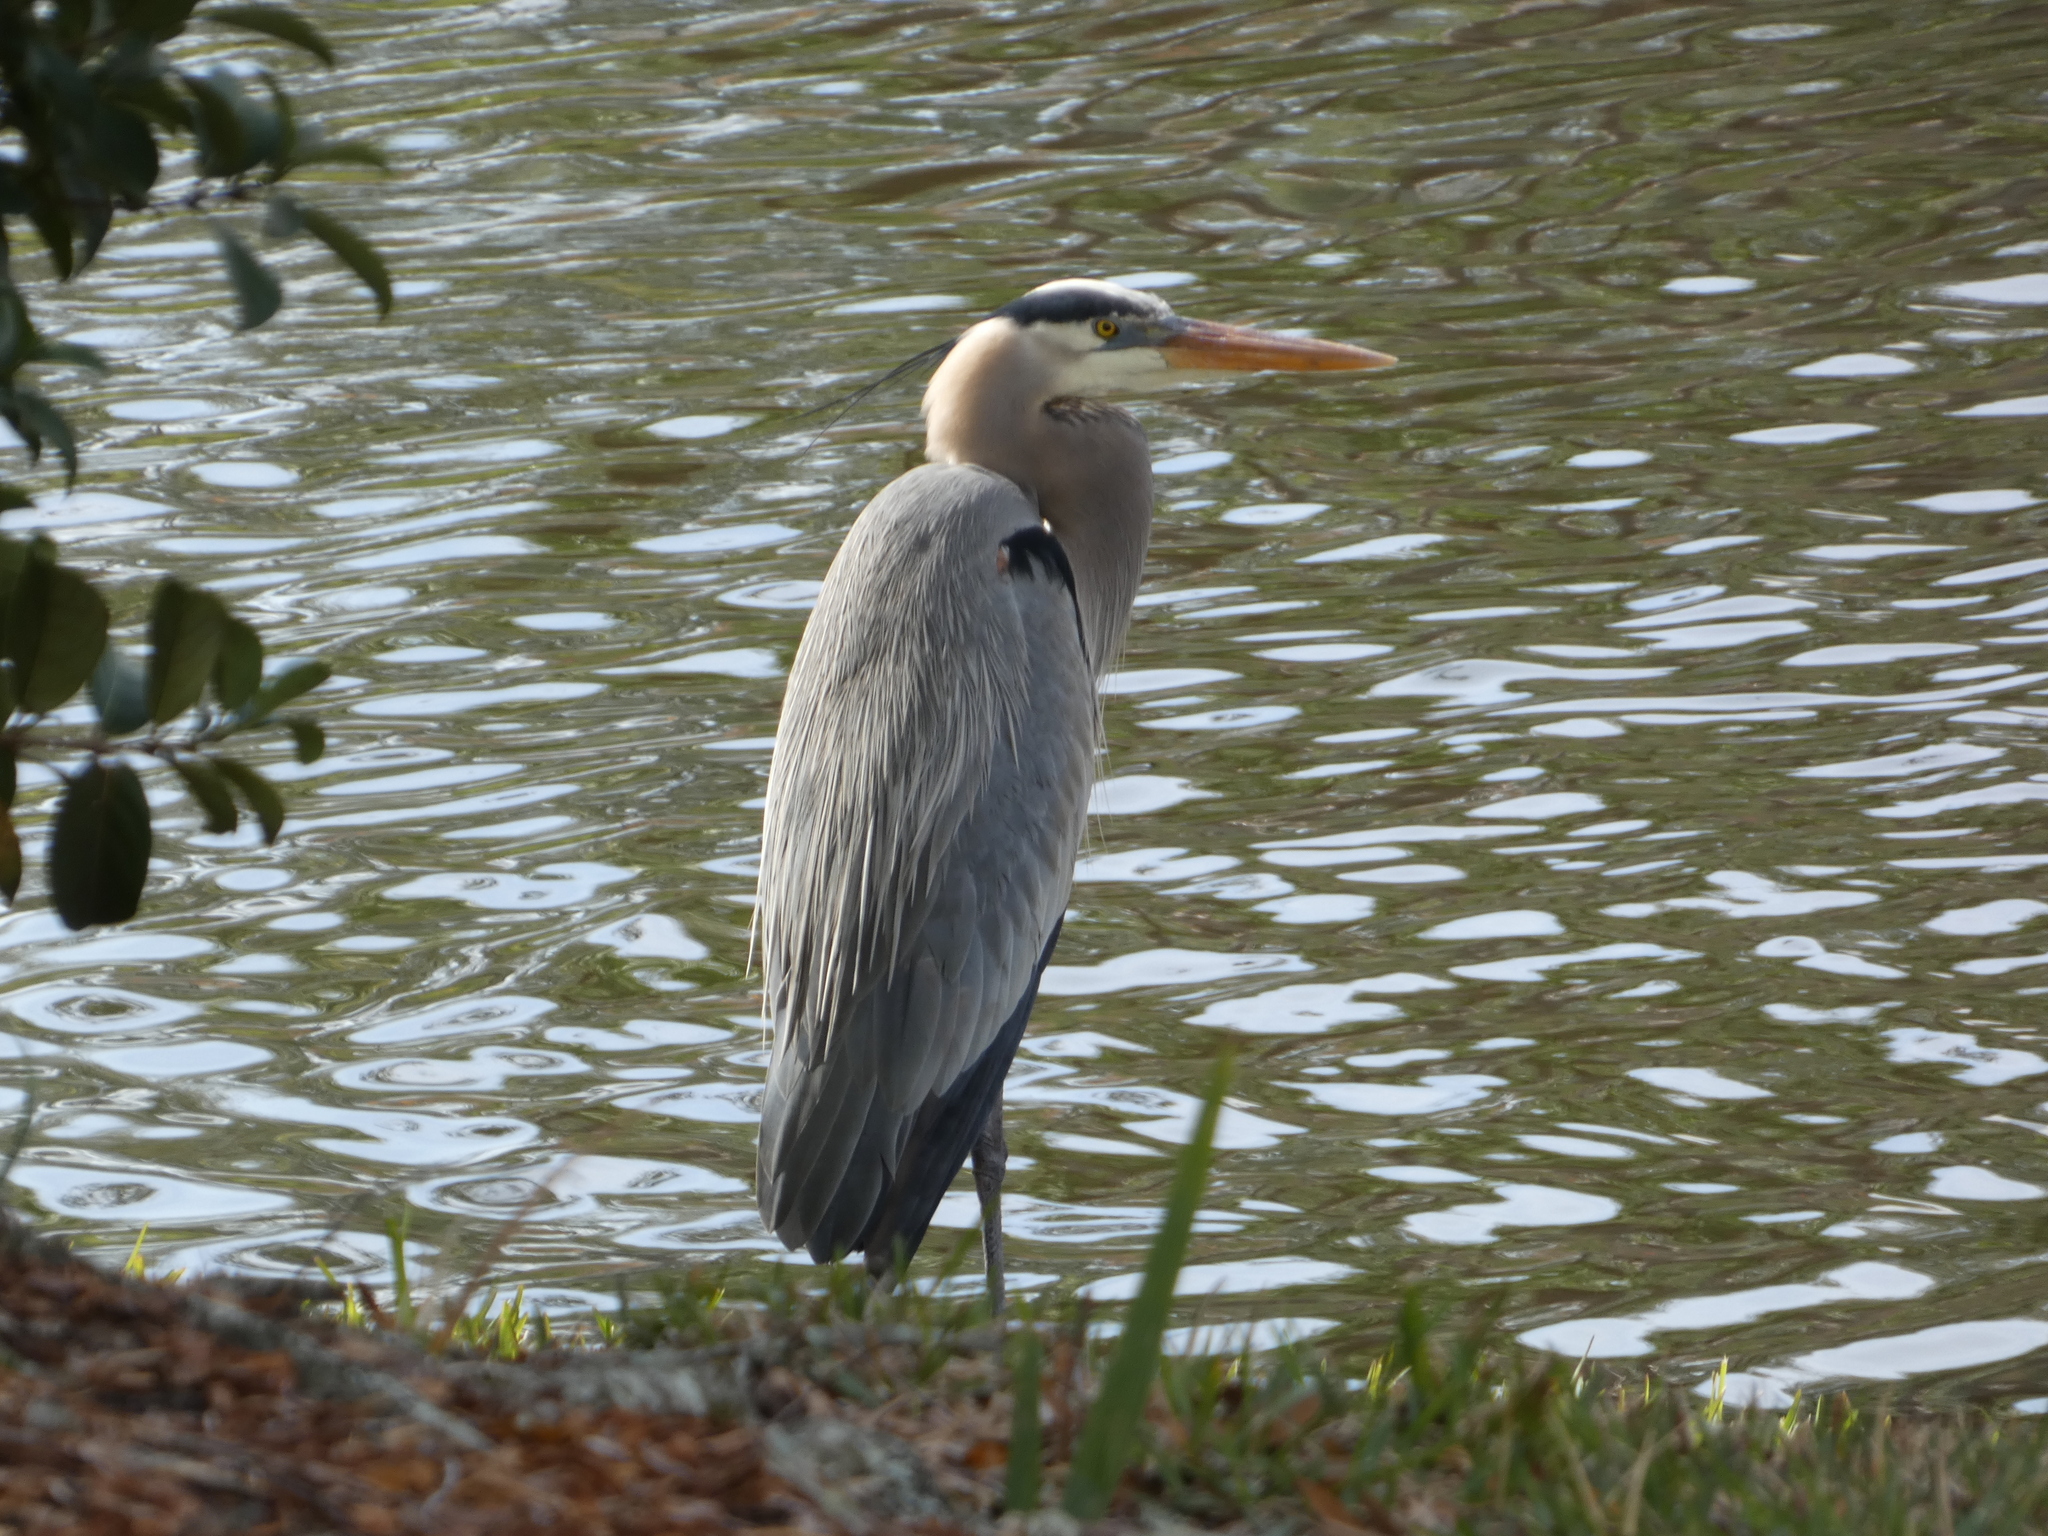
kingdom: Animalia
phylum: Chordata
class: Aves
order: Pelecaniformes
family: Ardeidae
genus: Ardea
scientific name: Ardea herodias
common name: Great blue heron
